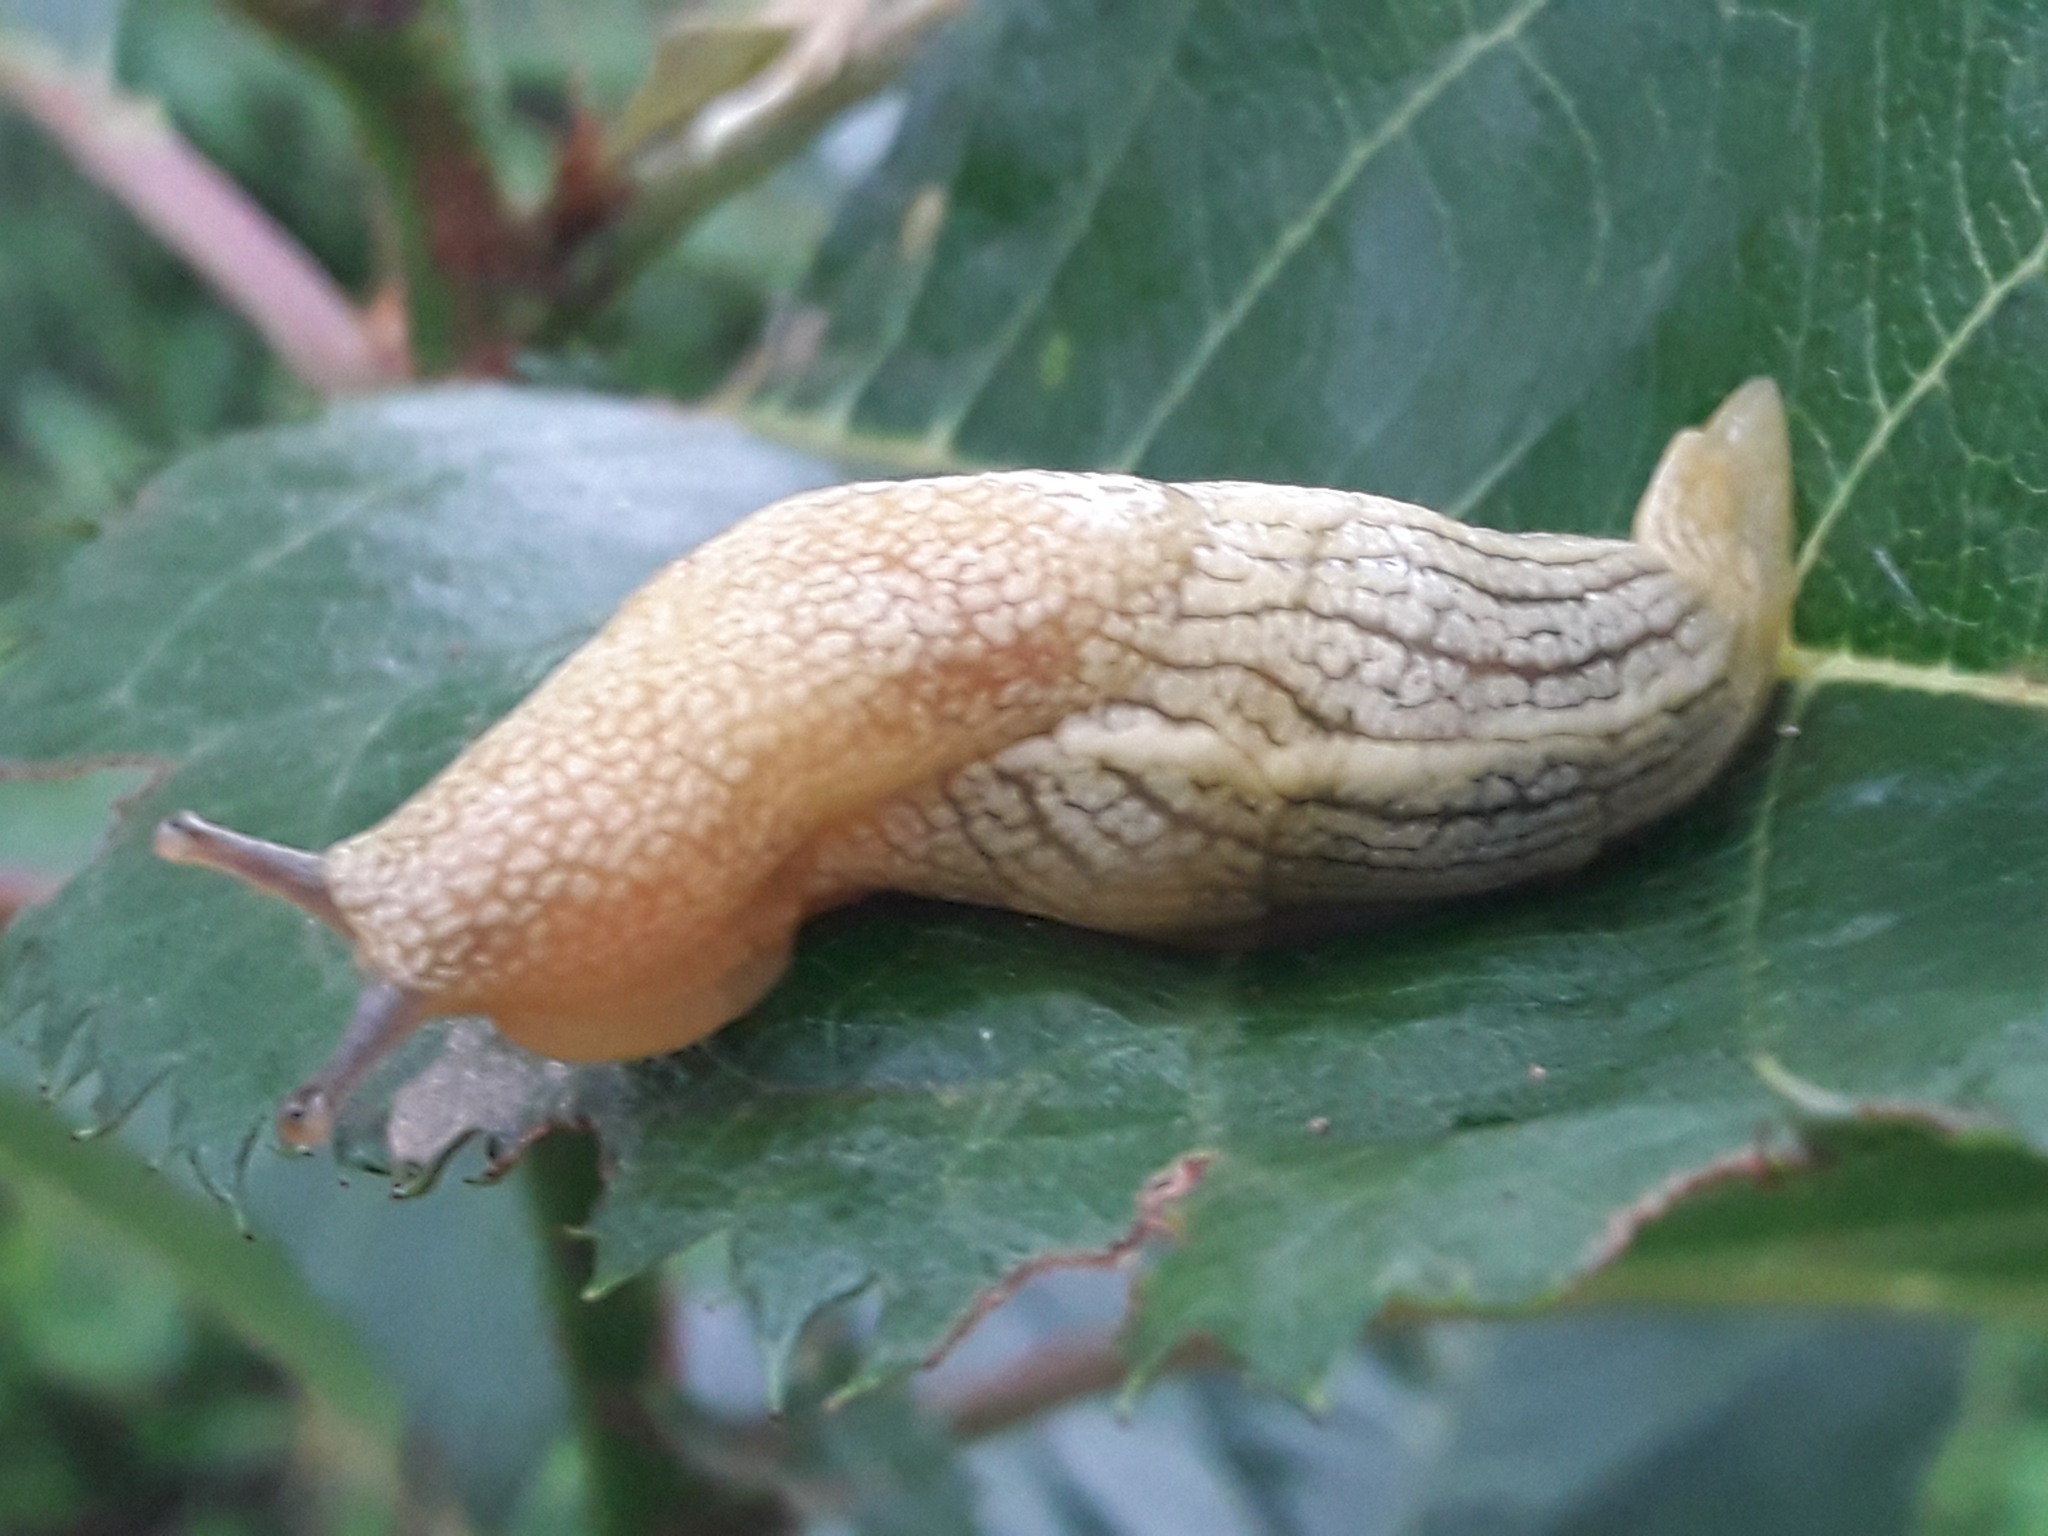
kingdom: Animalia
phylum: Mollusca
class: Gastropoda
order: Stylommatophora
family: Urocyclidae
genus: Elisolimax
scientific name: Elisolimax flavescens
